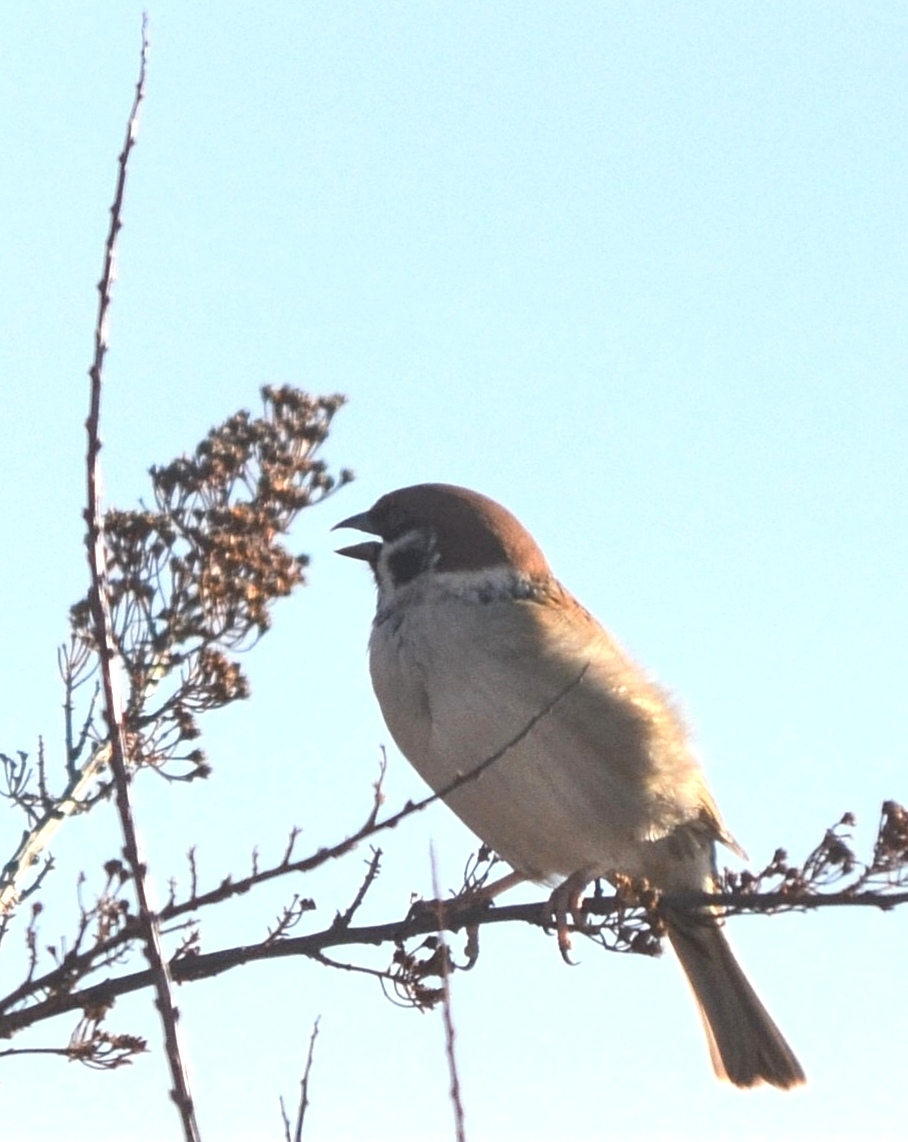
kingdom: Animalia
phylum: Chordata
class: Aves
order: Passeriformes
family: Passeridae
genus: Passer
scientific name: Passer montanus
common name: Eurasian tree sparrow
